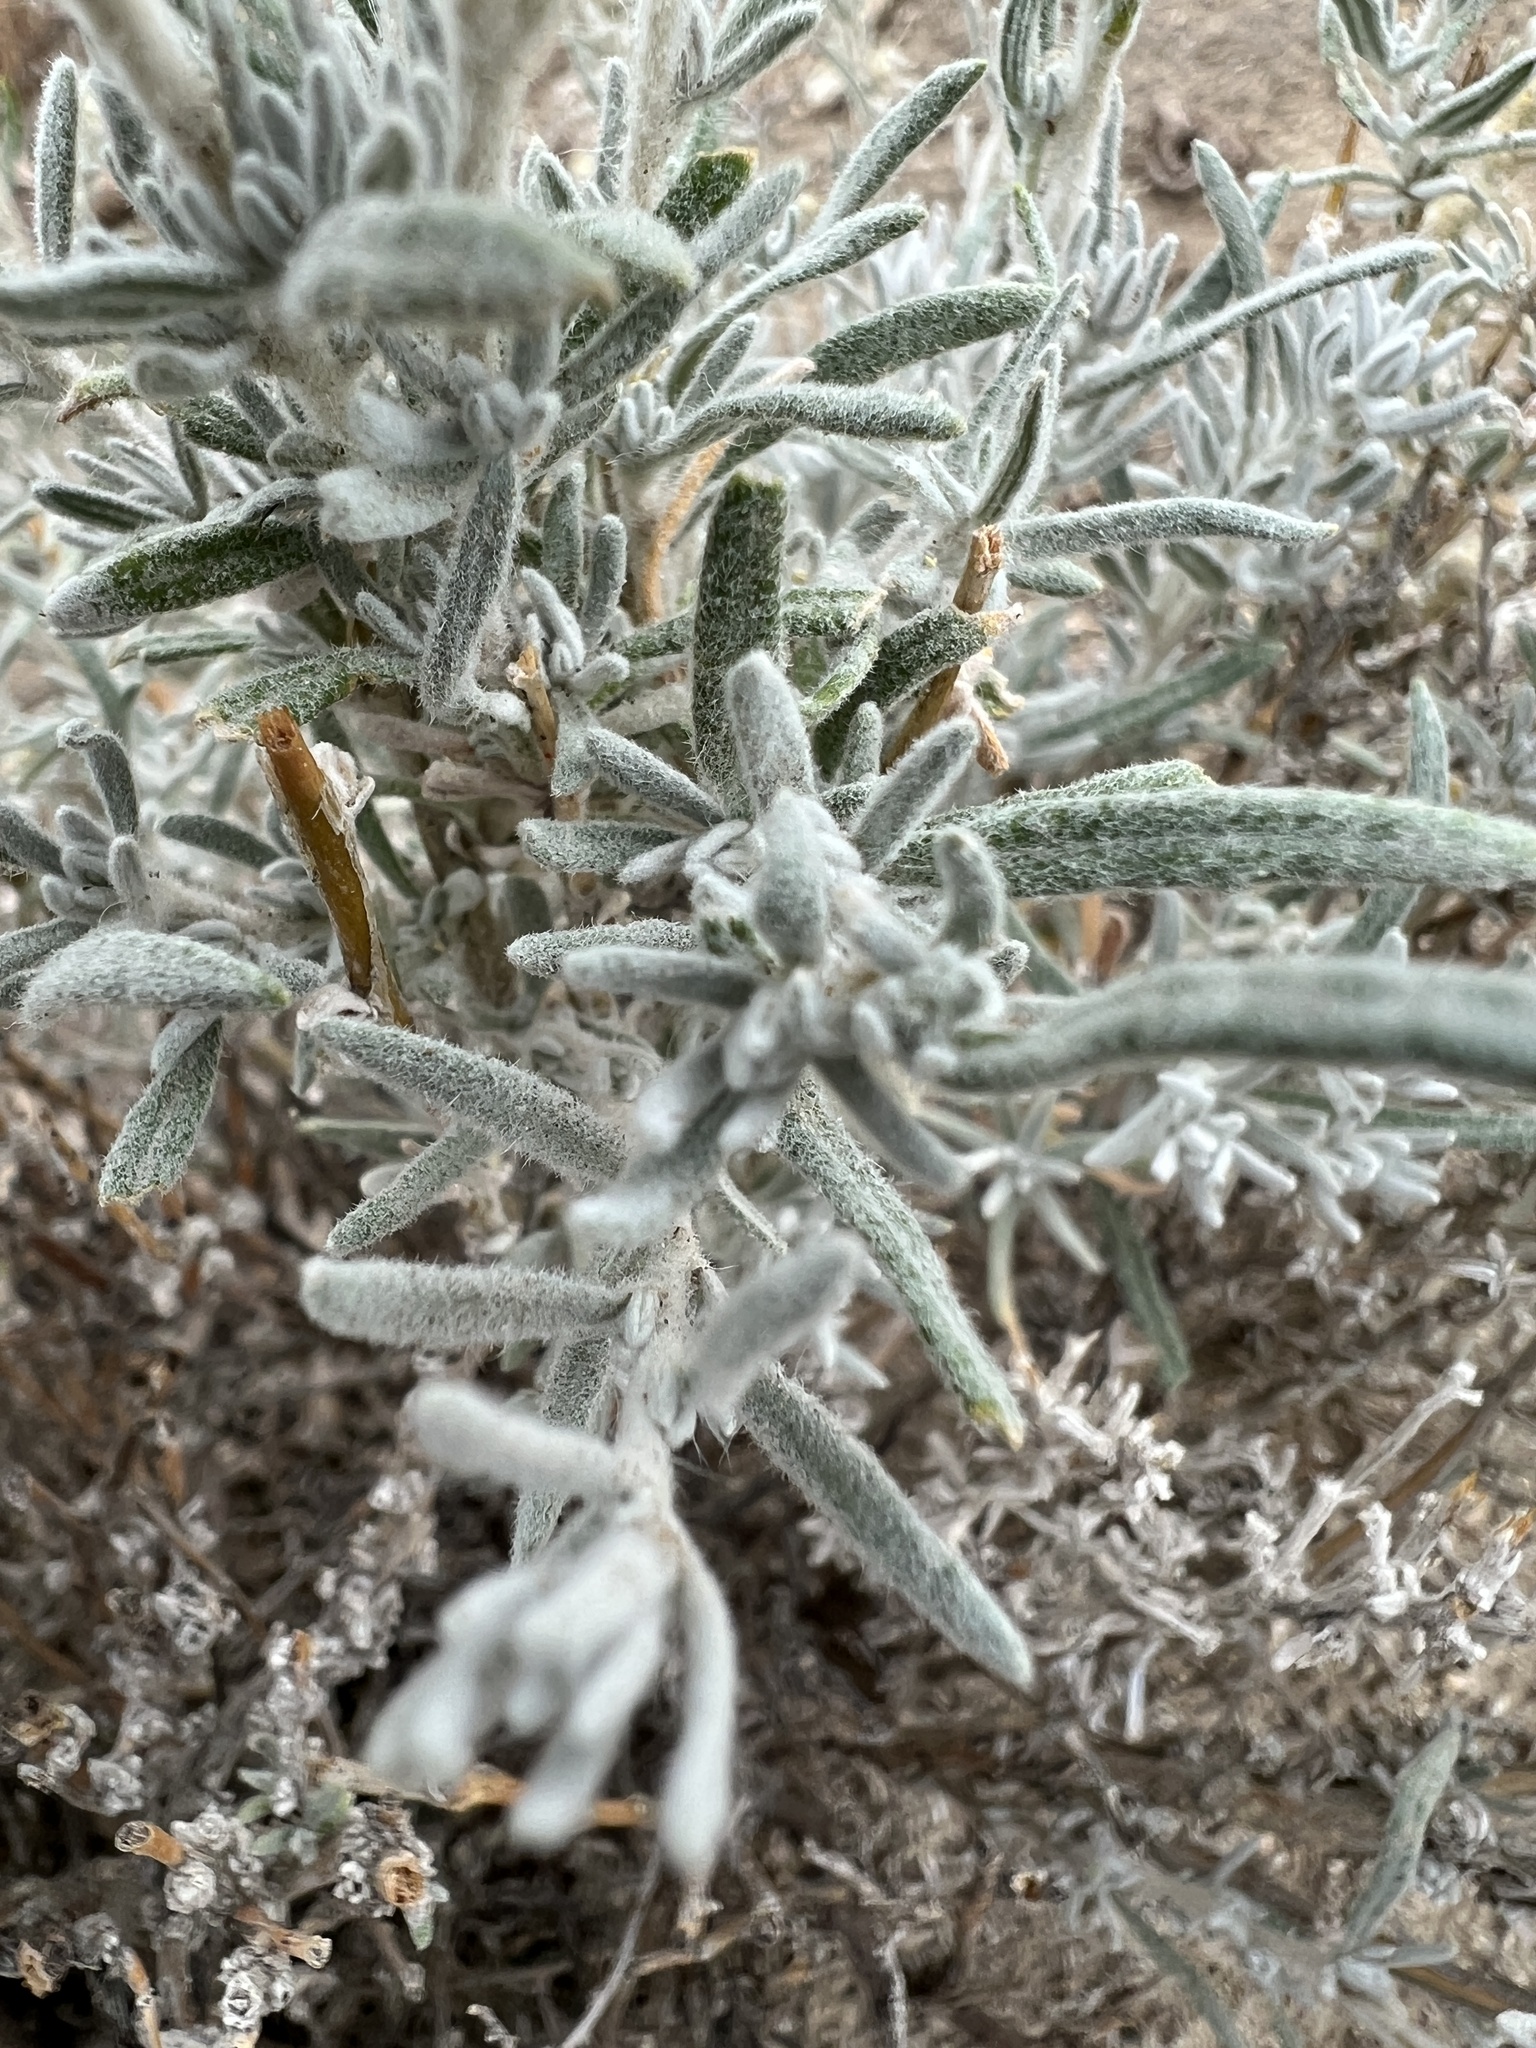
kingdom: Plantae
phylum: Tracheophyta
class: Magnoliopsida
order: Caryophyllales
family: Amaranthaceae
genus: Krascheninnikovia
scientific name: Krascheninnikovia lanata
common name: Winterfat
